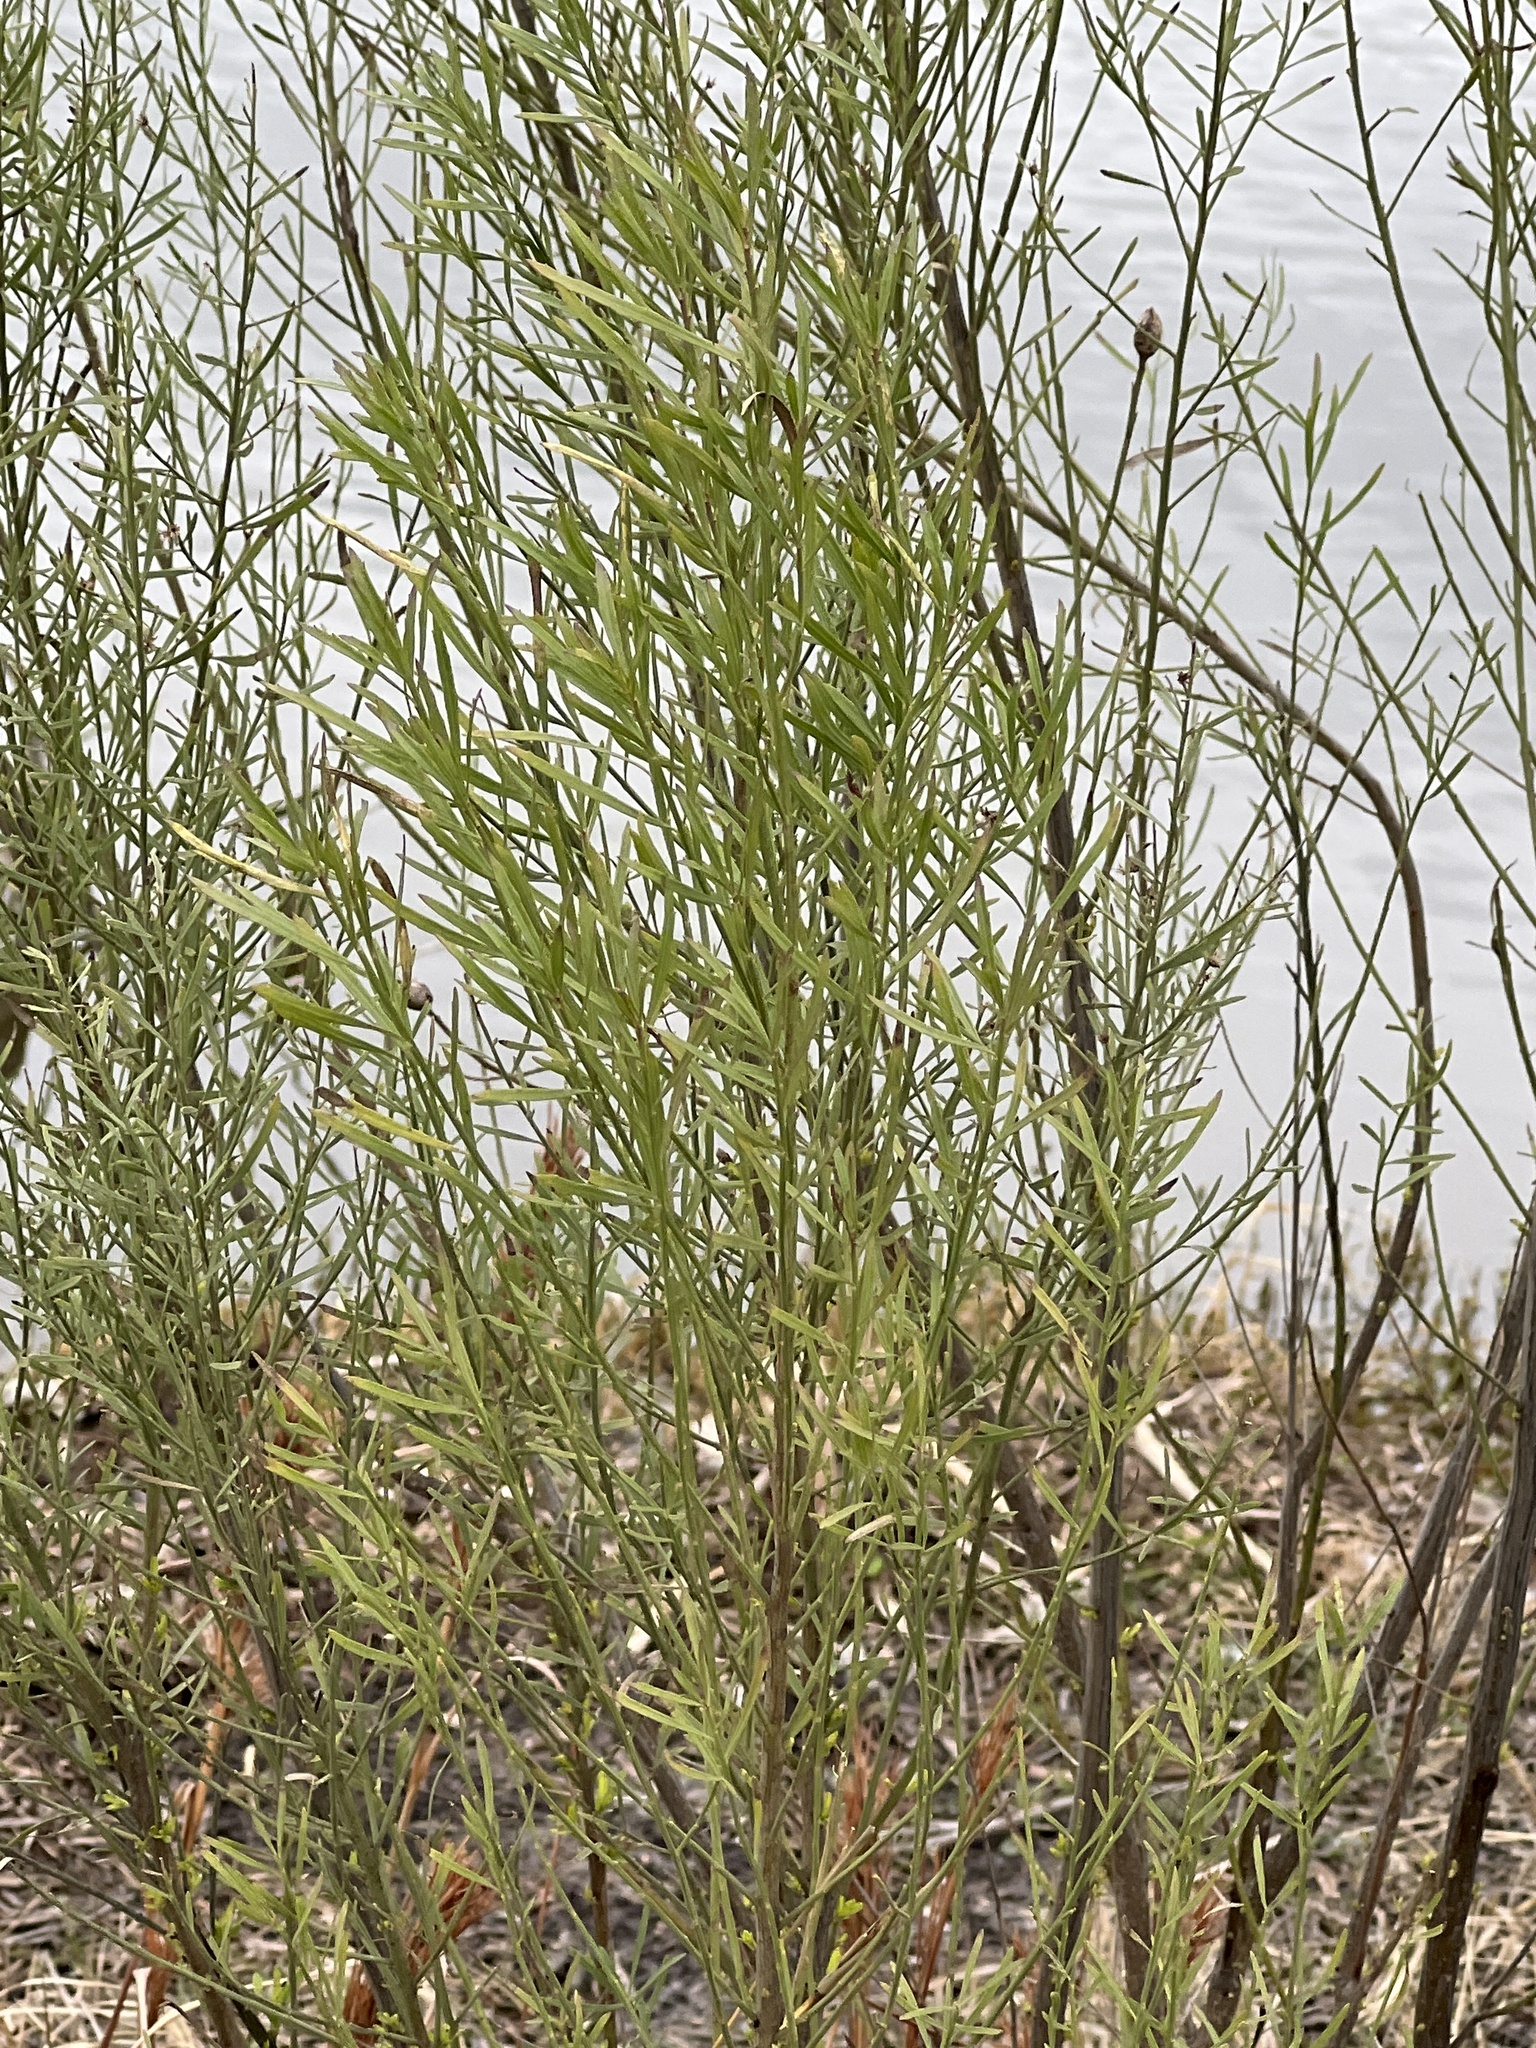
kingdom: Plantae
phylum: Tracheophyta
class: Magnoliopsida
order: Asterales
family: Asteraceae
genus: Baccharis
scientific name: Baccharis neglecta
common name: Roosevelt-weed
